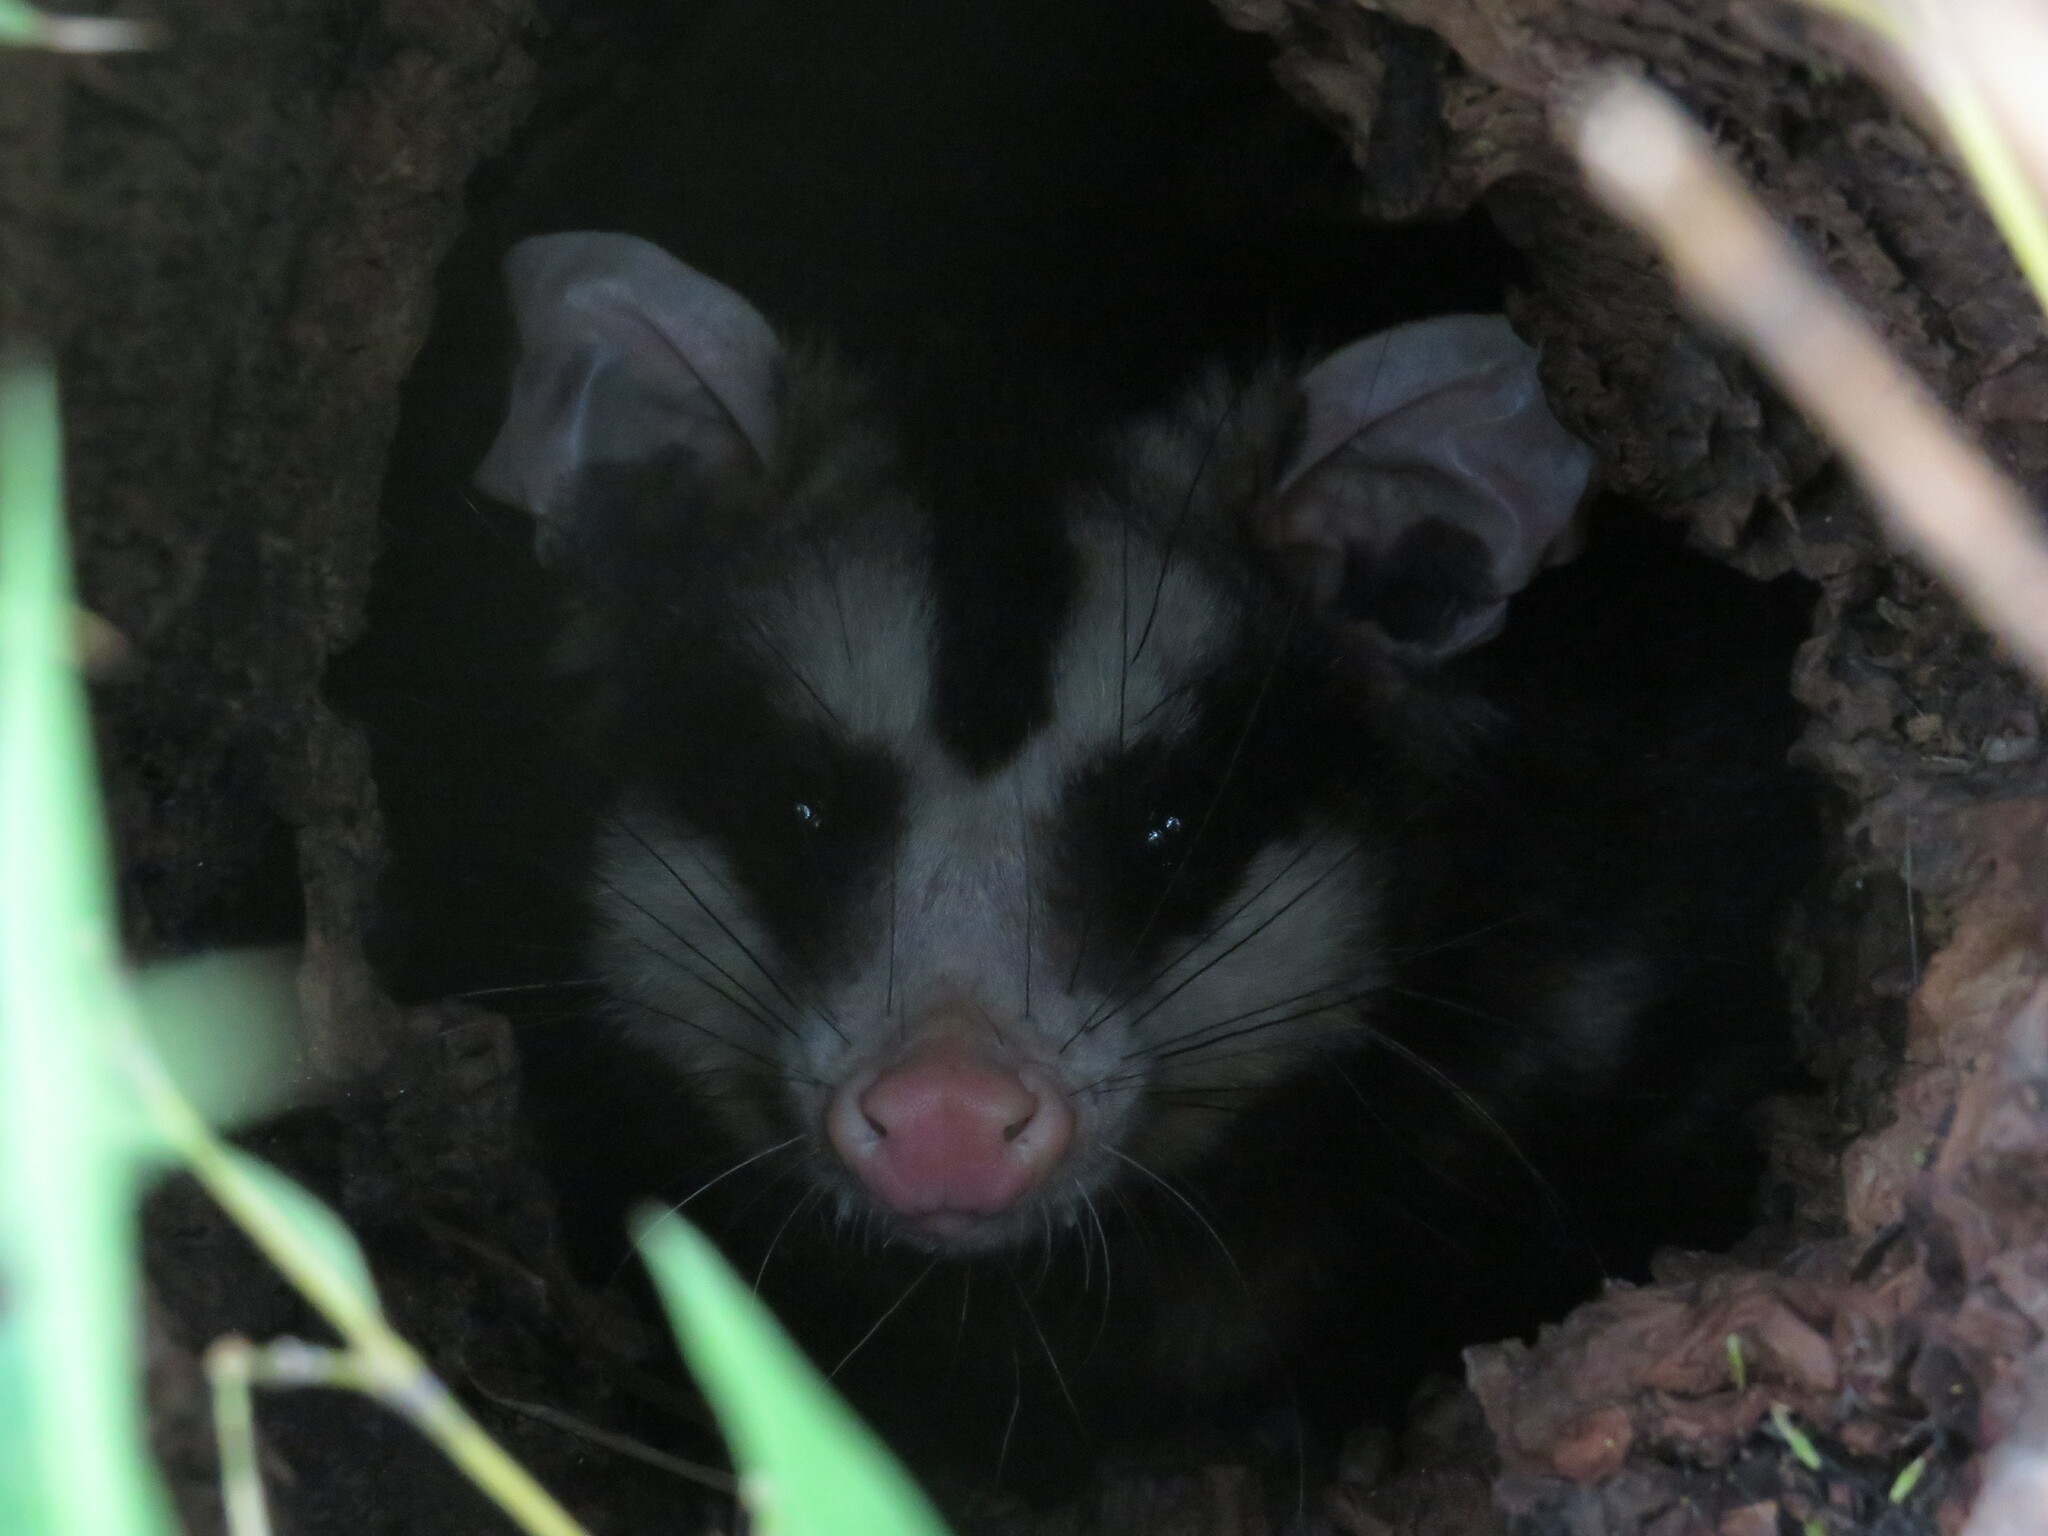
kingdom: Animalia
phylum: Chordata
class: Mammalia
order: Didelphimorphia
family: Didelphidae
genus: Didelphis
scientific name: Didelphis albiventris
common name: White-eared opossum
